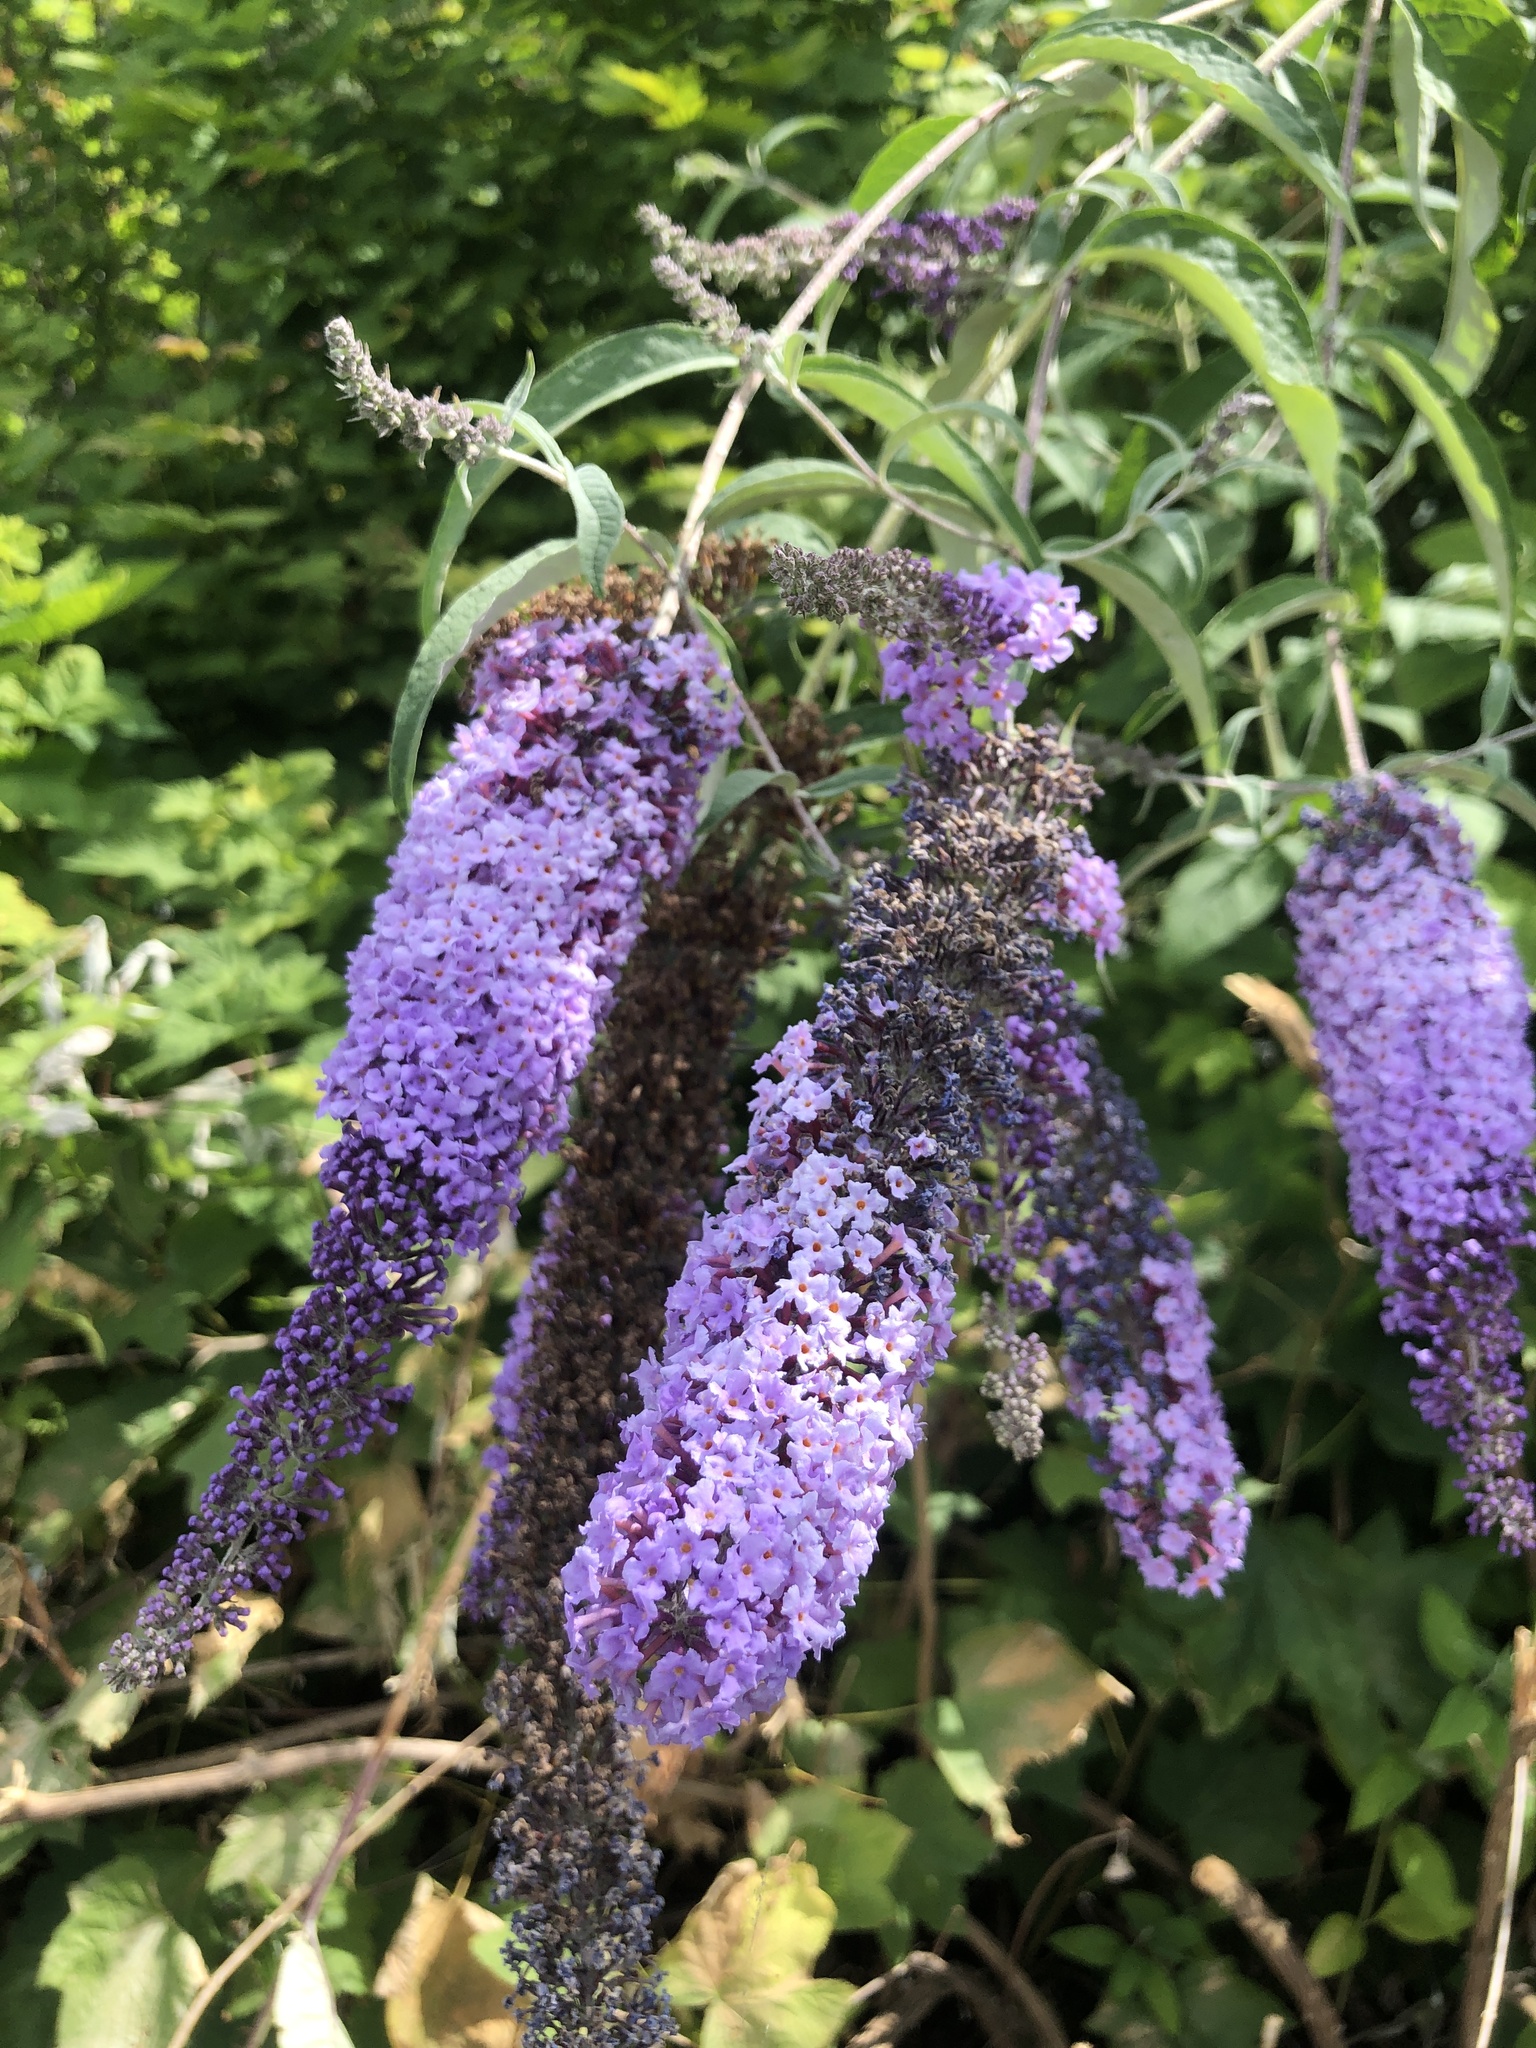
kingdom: Plantae
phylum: Tracheophyta
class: Magnoliopsida
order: Lamiales
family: Scrophulariaceae
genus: Buddleja
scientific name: Buddleja davidii
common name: Butterfly-bush
